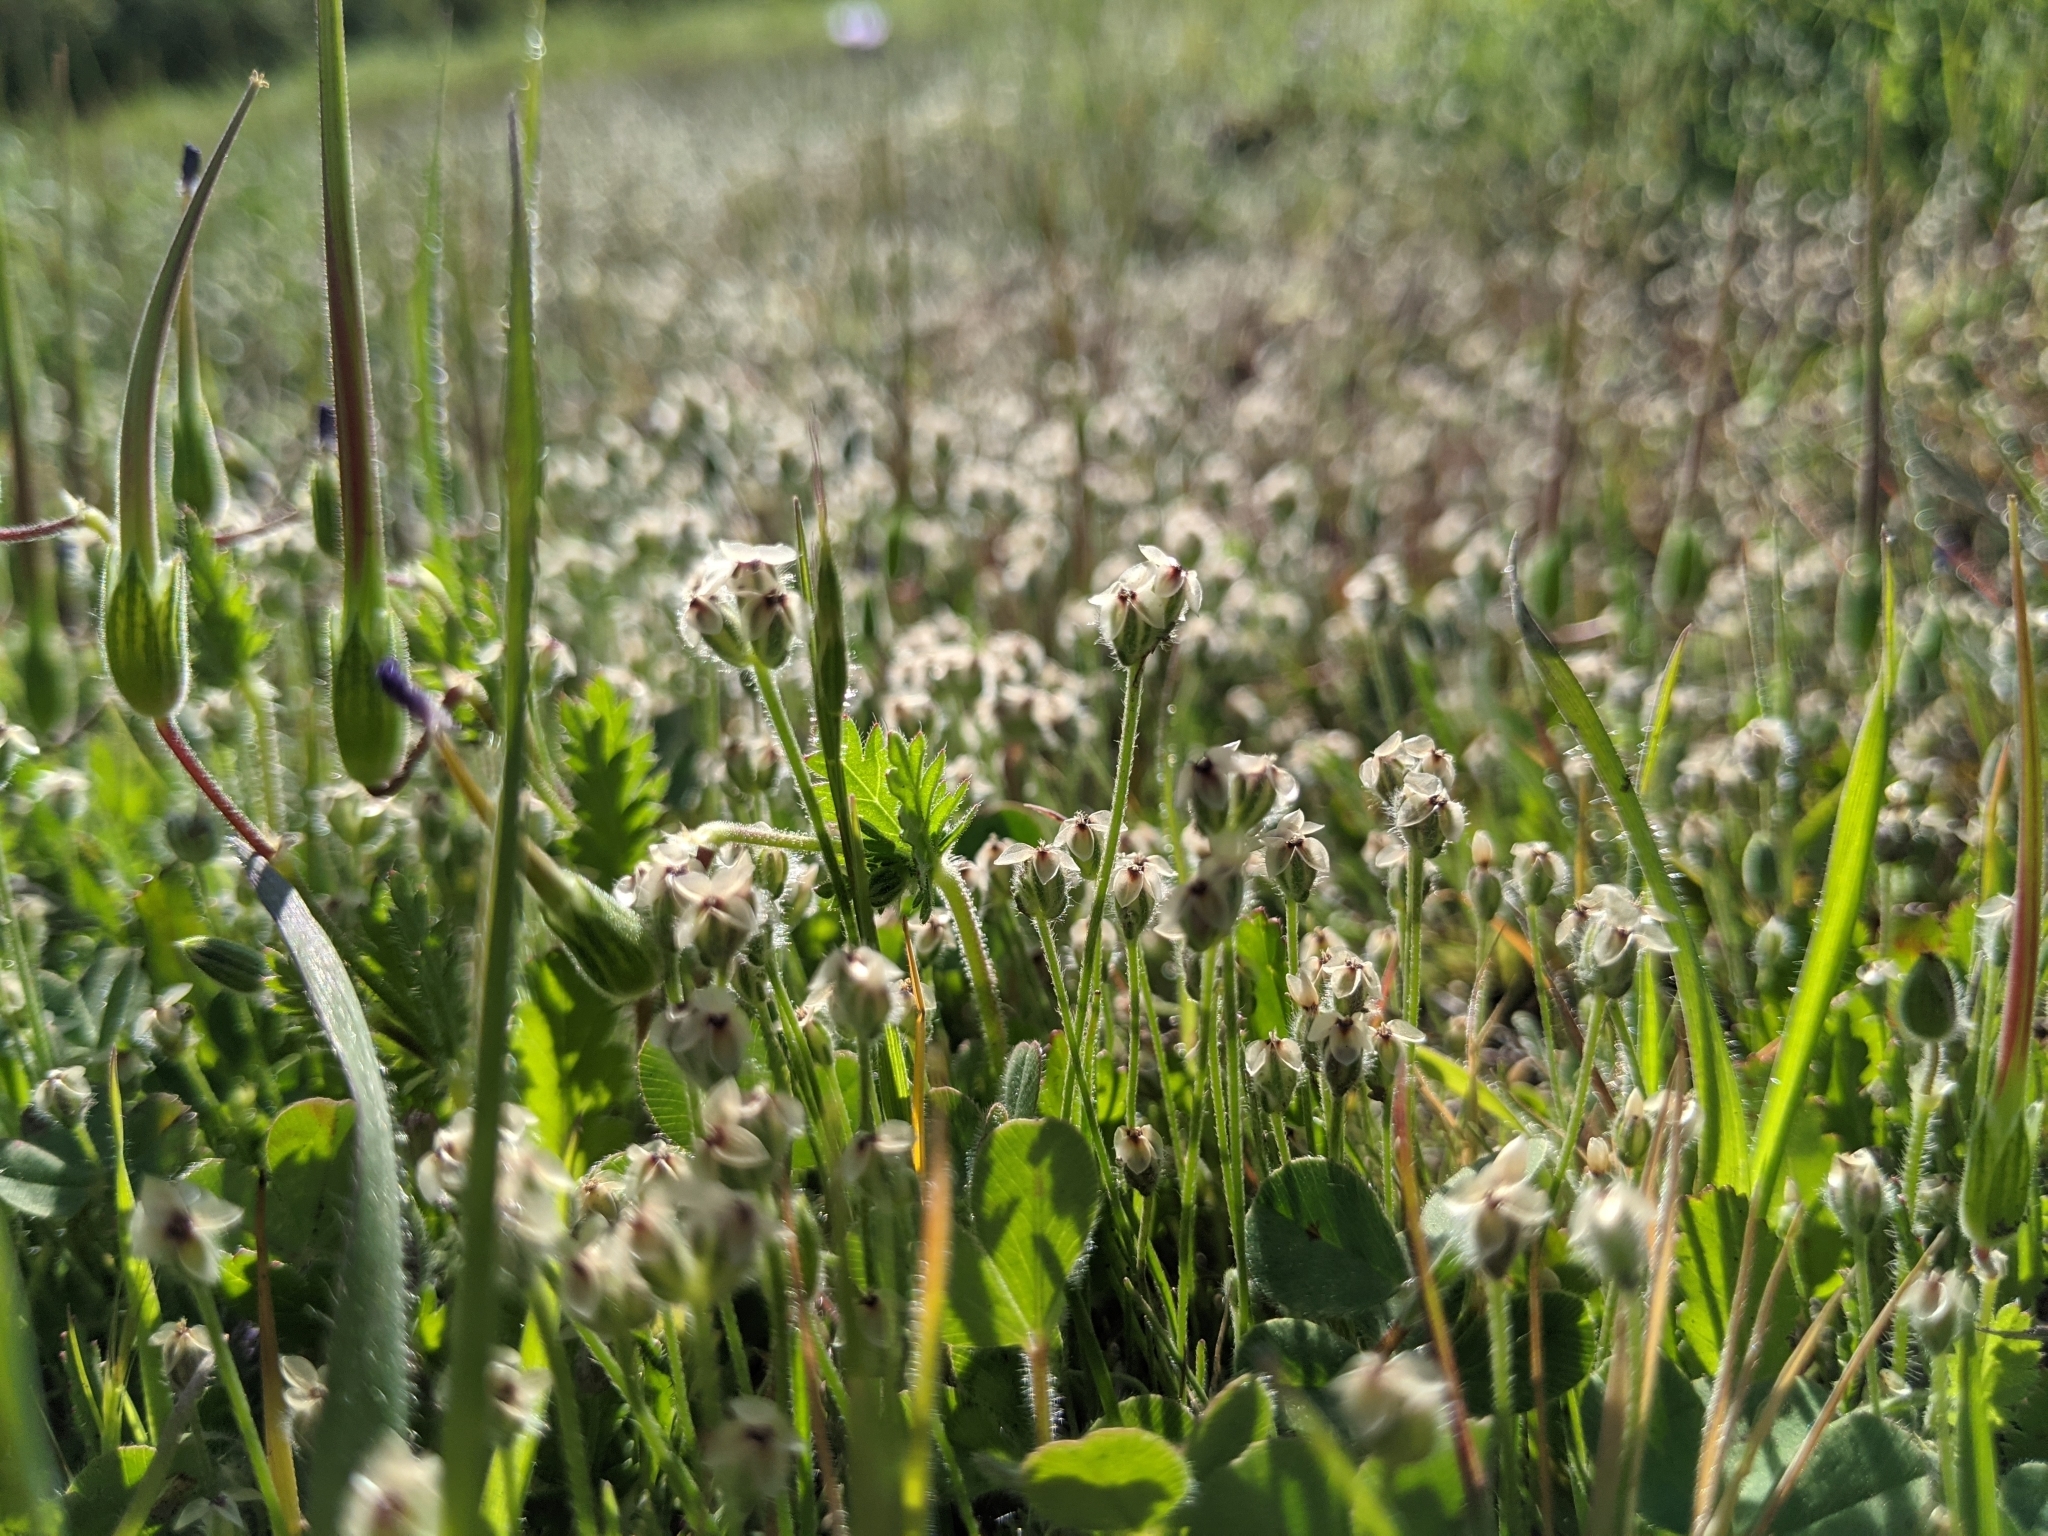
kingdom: Plantae
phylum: Tracheophyta
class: Magnoliopsida
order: Lamiales
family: Plantaginaceae
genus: Plantago
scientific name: Plantago erecta
